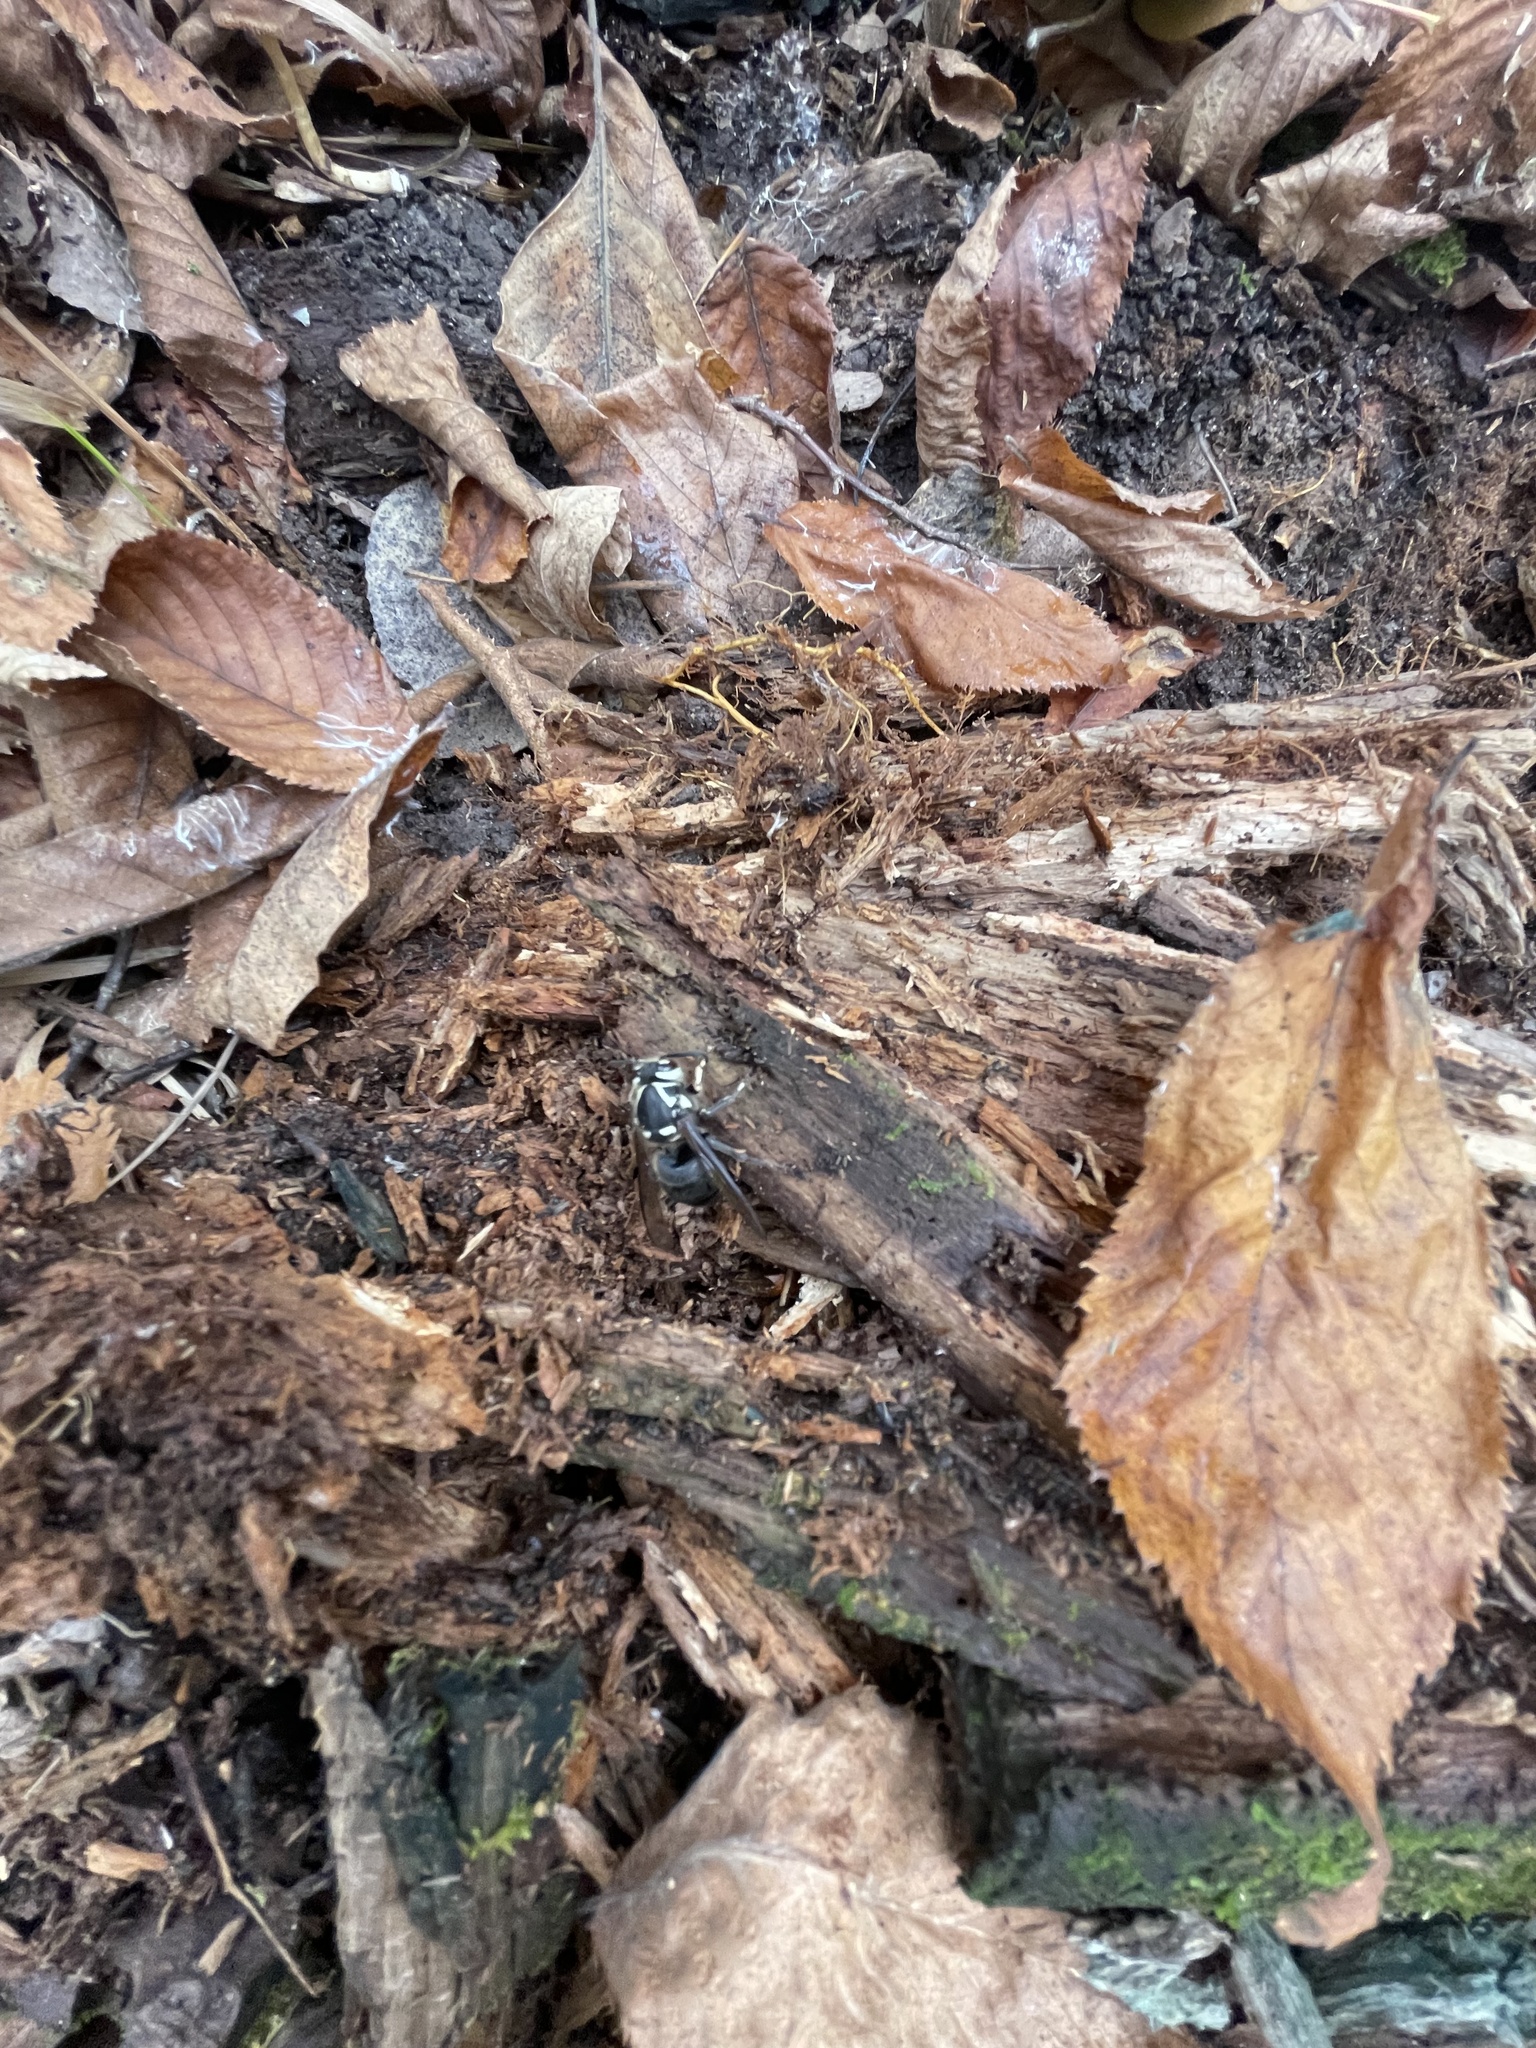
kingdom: Animalia
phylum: Arthropoda
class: Insecta
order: Hymenoptera
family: Vespidae
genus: Dolichovespula
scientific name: Dolichovespula maculata
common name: Bald-faced hornet
